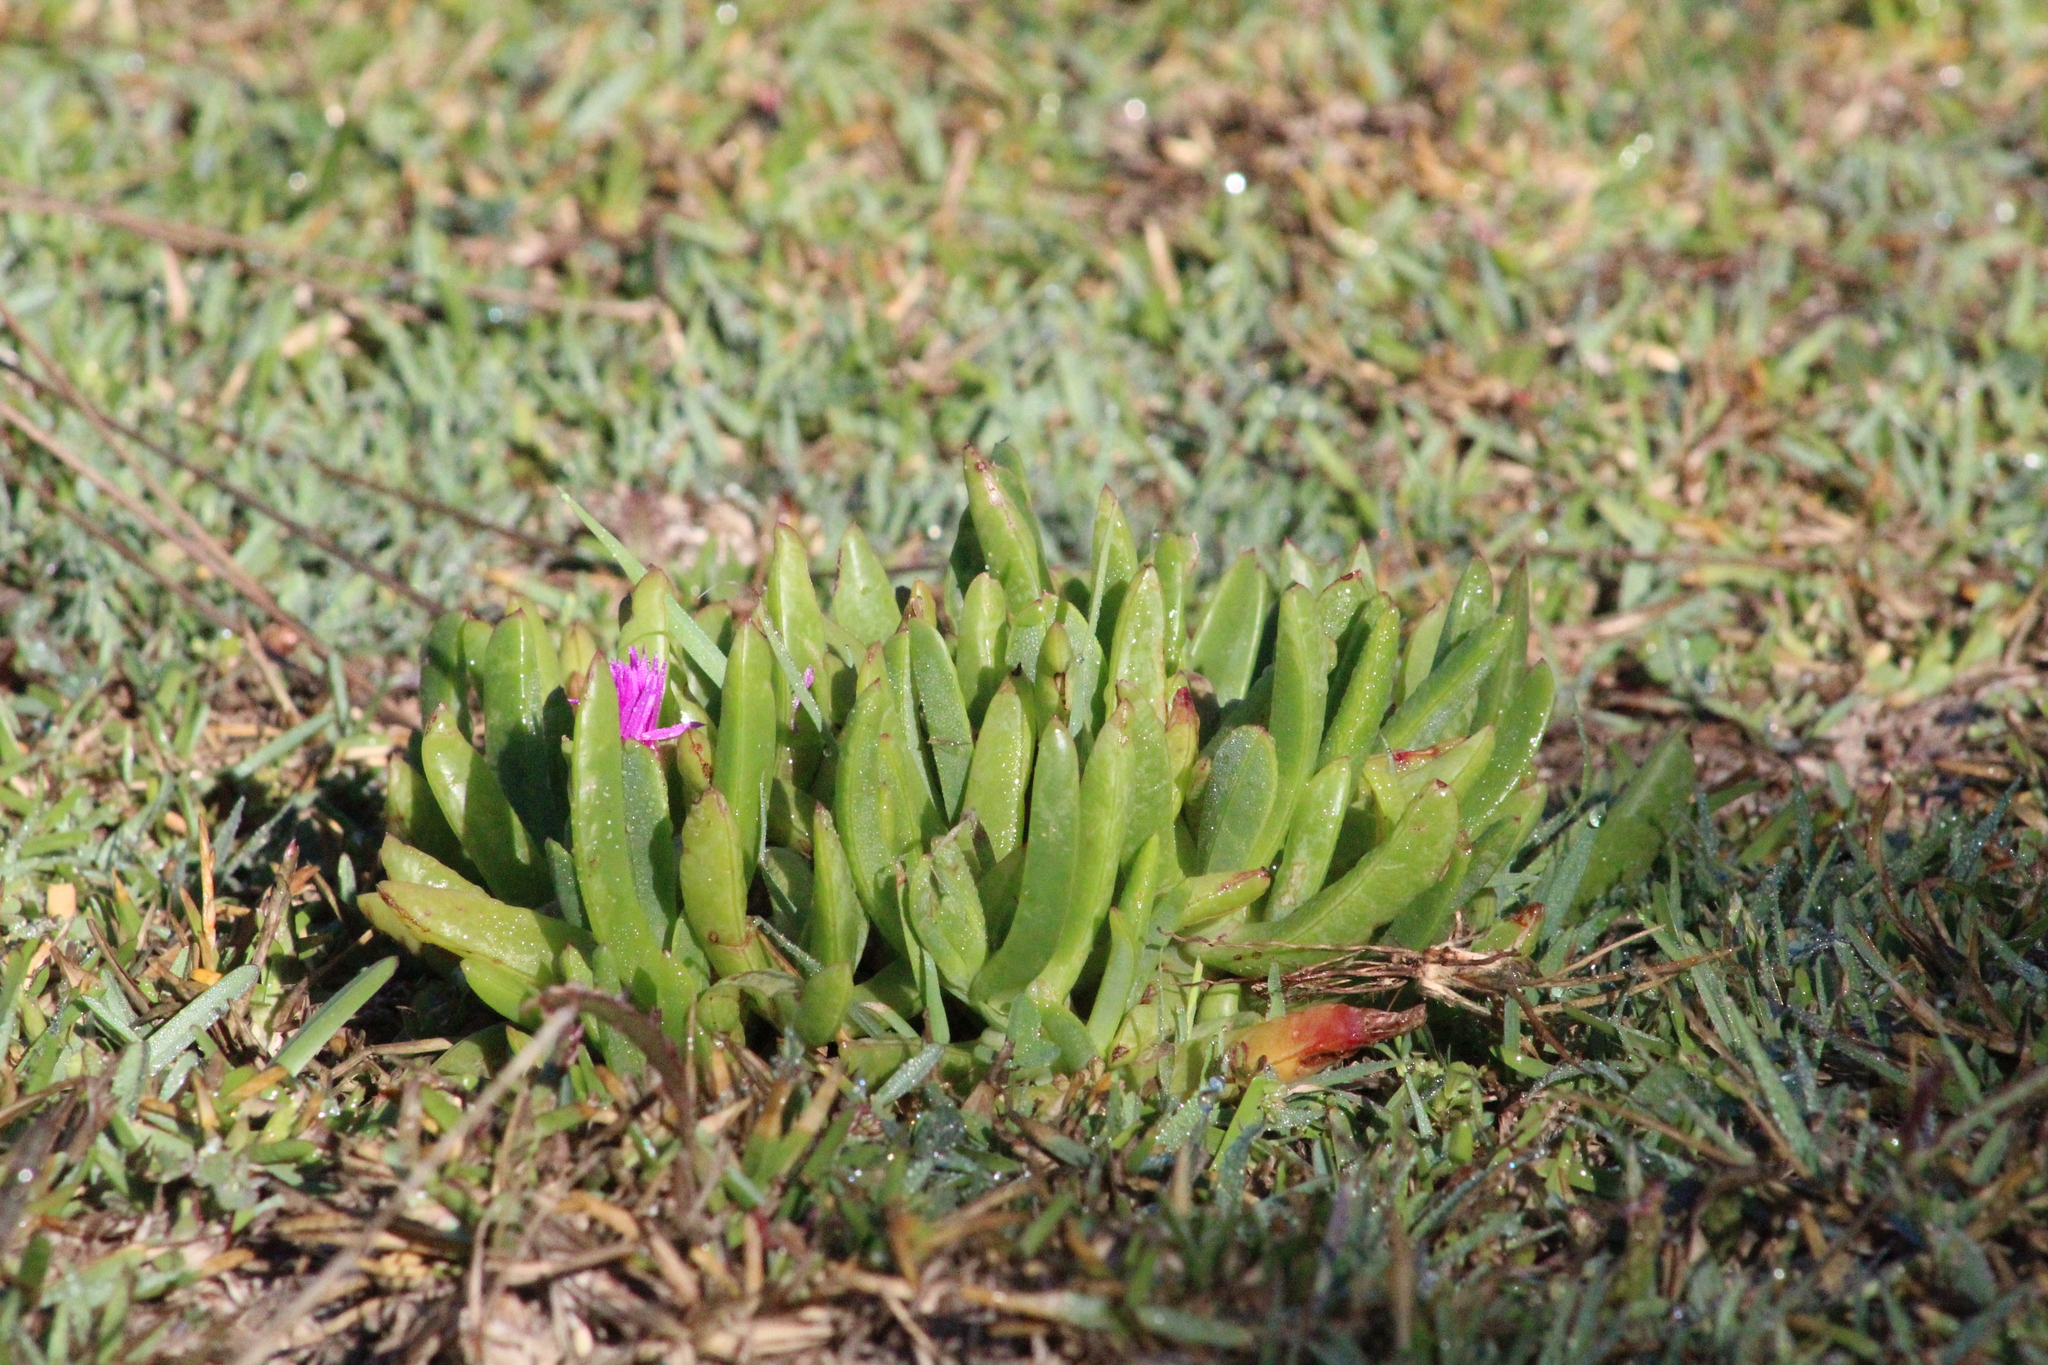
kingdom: Plantae
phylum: Tracheophyta
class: Magnoliopsida
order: Caryophyllales
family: Aizoaceae
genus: Carpobrotus
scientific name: Carpobrotus glaucescens
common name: Angular sea-fig
